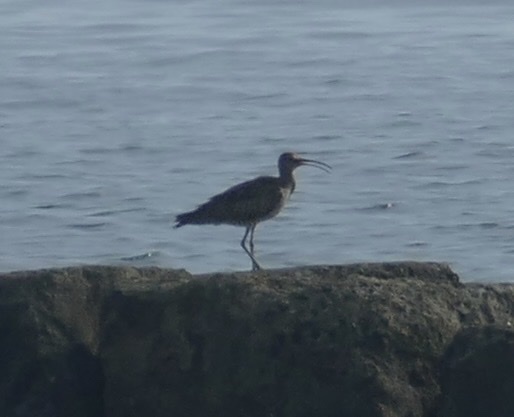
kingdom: Animalia
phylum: Chordata
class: Aves
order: Charadriiformes
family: Scolopacidae
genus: Numenius
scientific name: Numenius phaeopus
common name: Whimbrel
